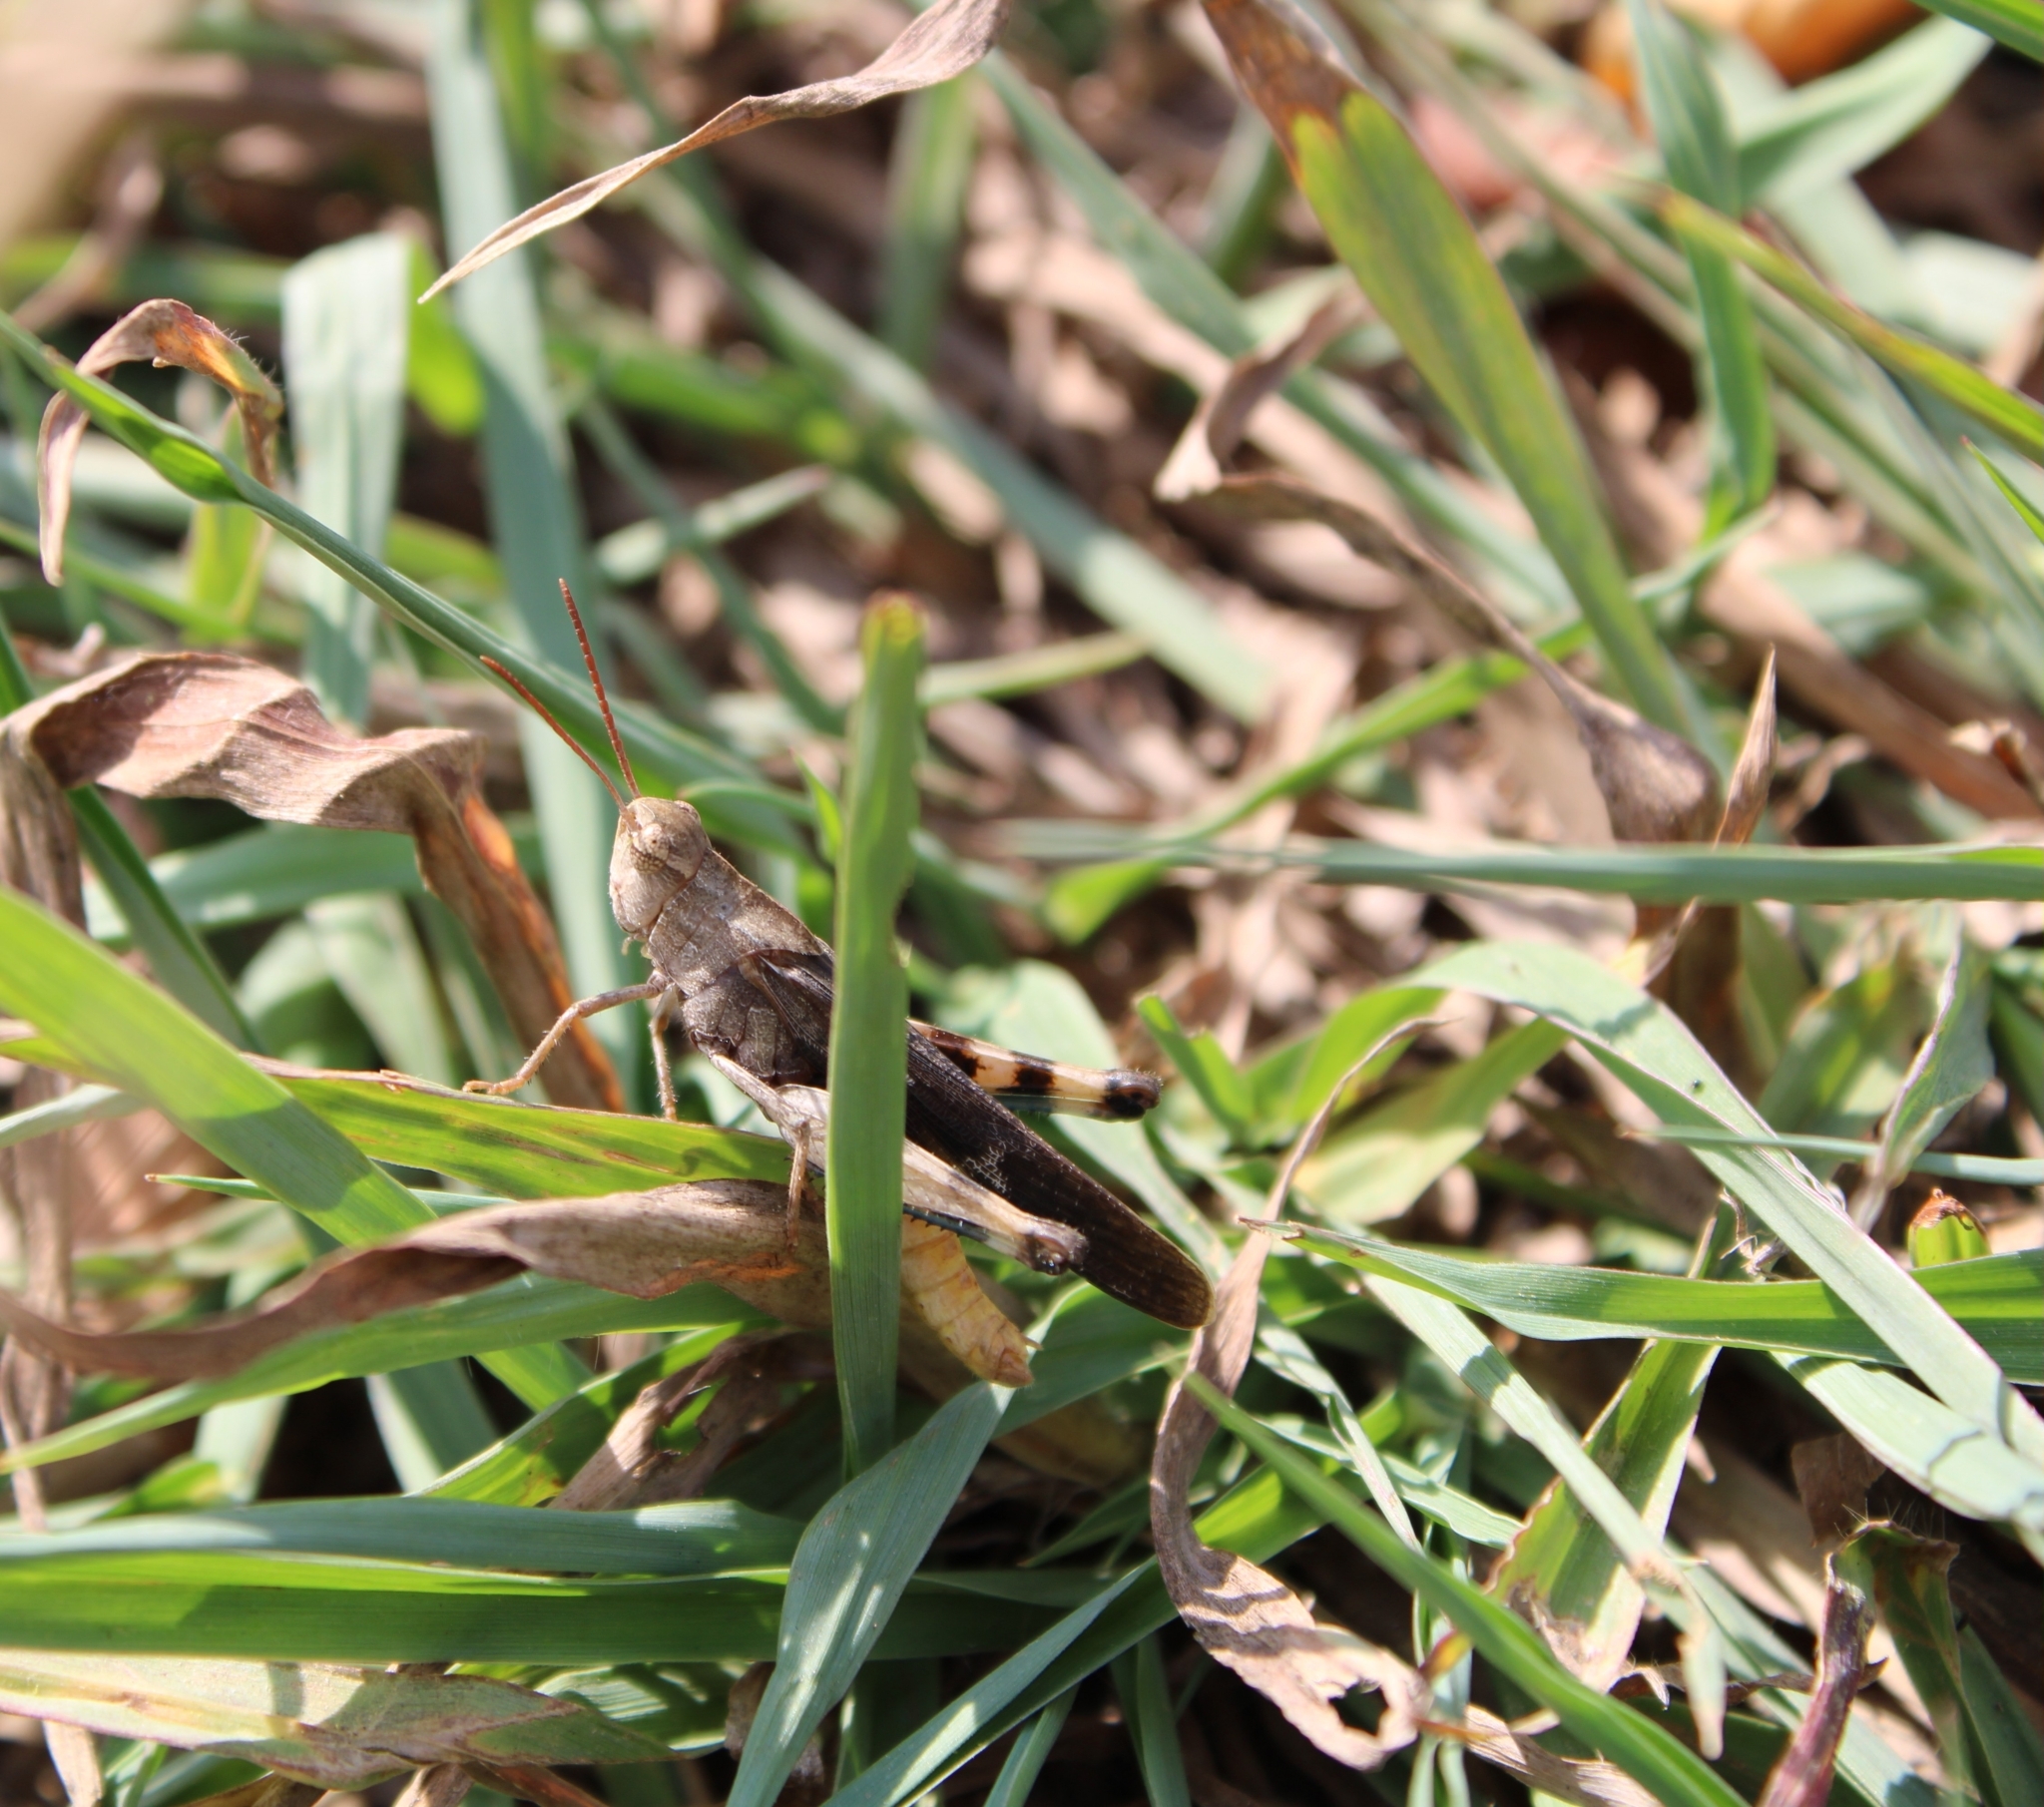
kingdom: Animalia
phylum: Arthropoda
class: Insecta
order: Orthoptera
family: Acrididae
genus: Chortophaga
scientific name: Chortophaga viridifasciata
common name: Green-striped grasshopper
